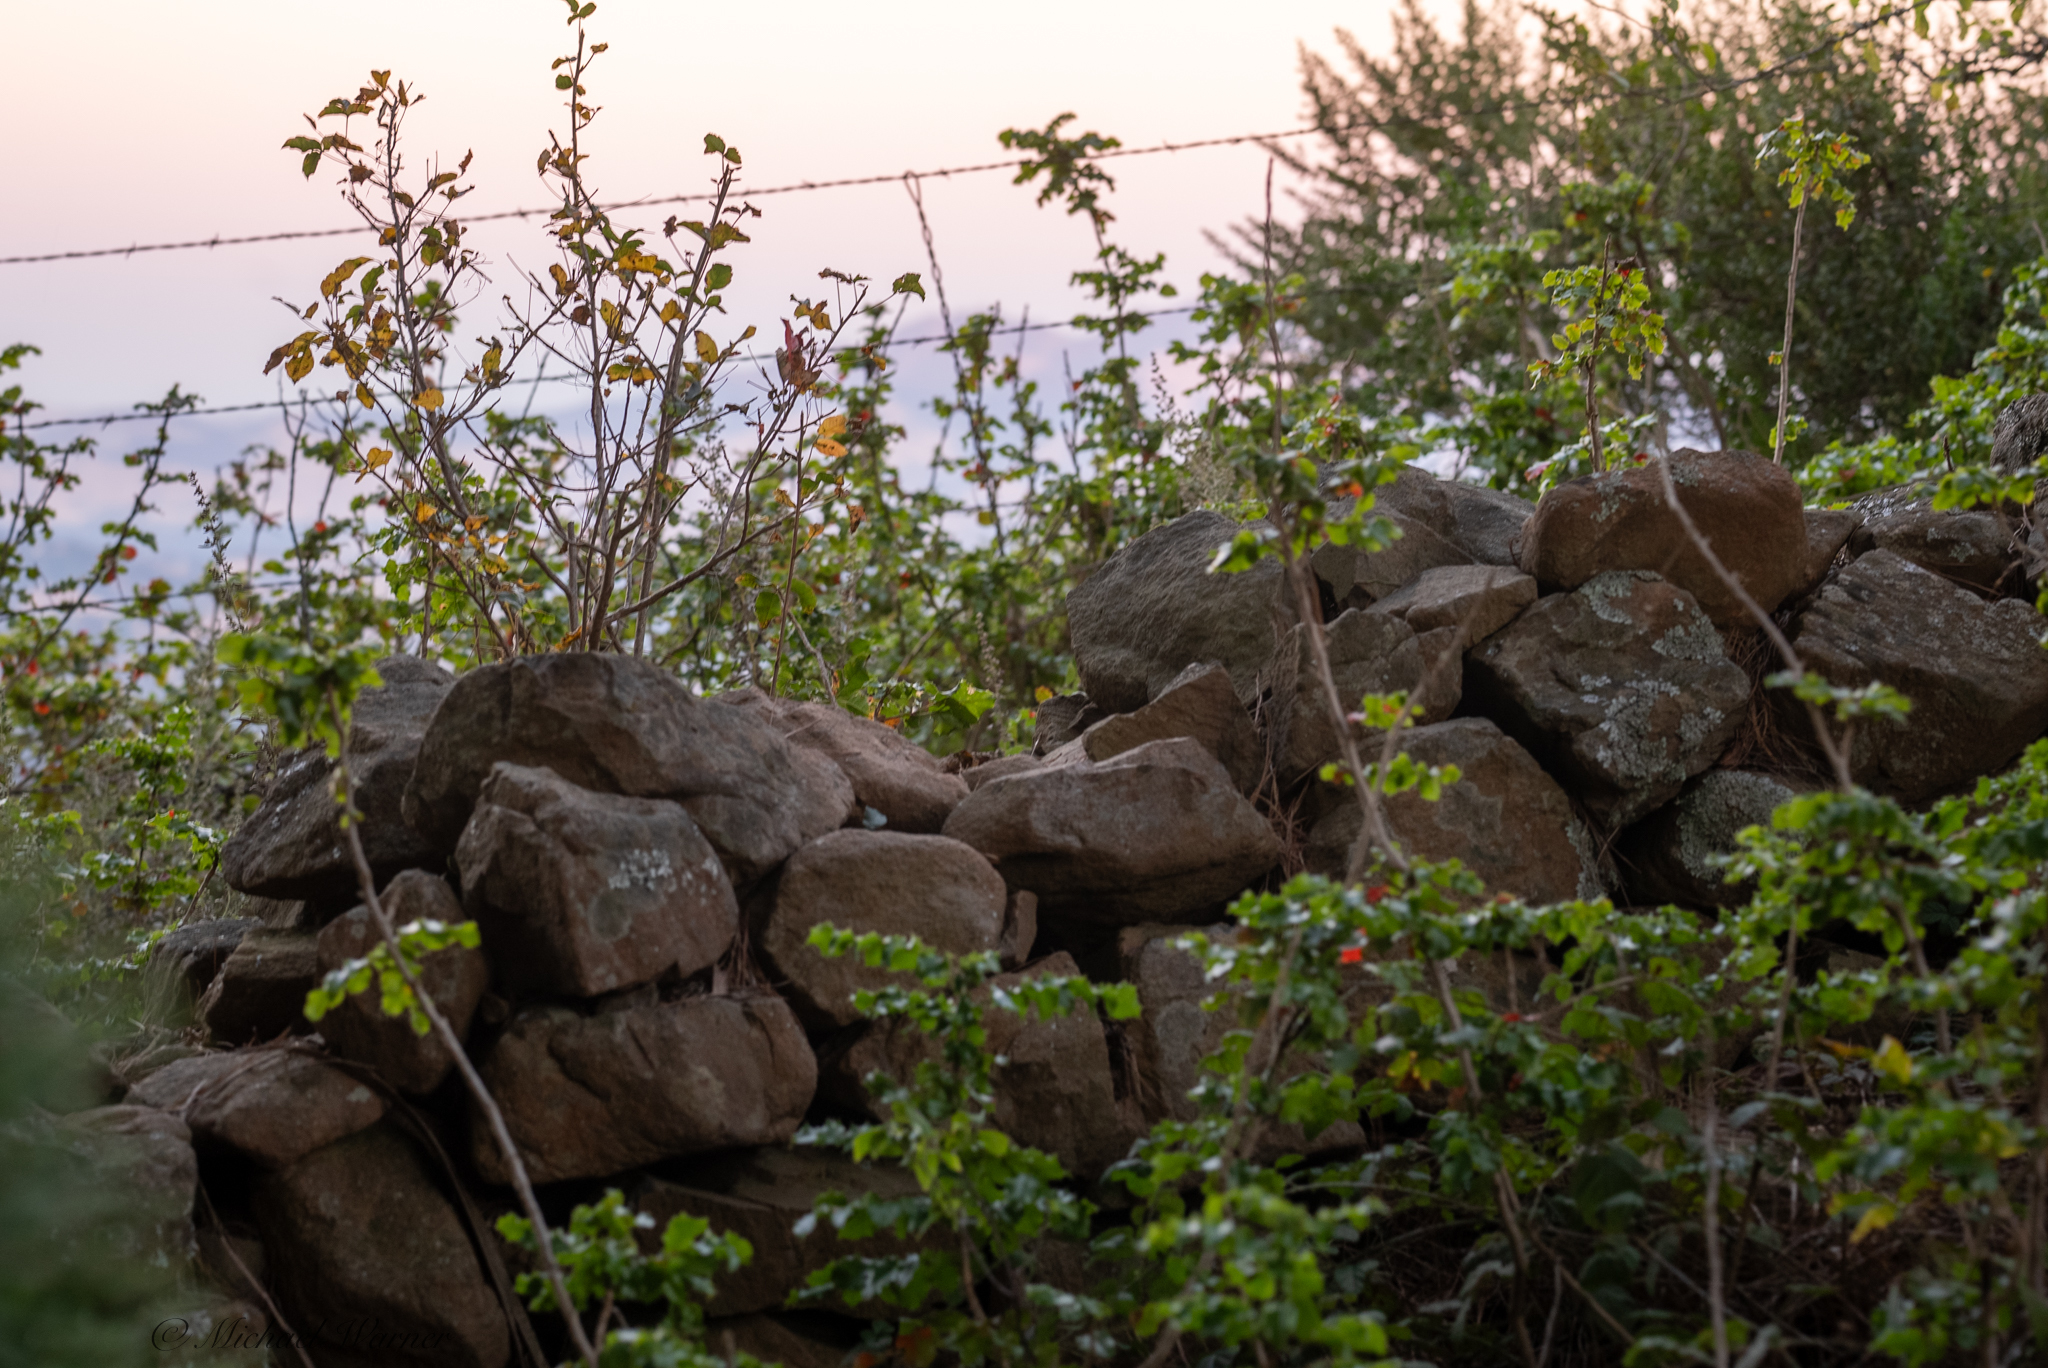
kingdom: Plantae
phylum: Tracheophyta
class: Magnoliopsida
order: Ranunculales
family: Berberidaceae
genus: Mahonia
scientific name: Mahonia
